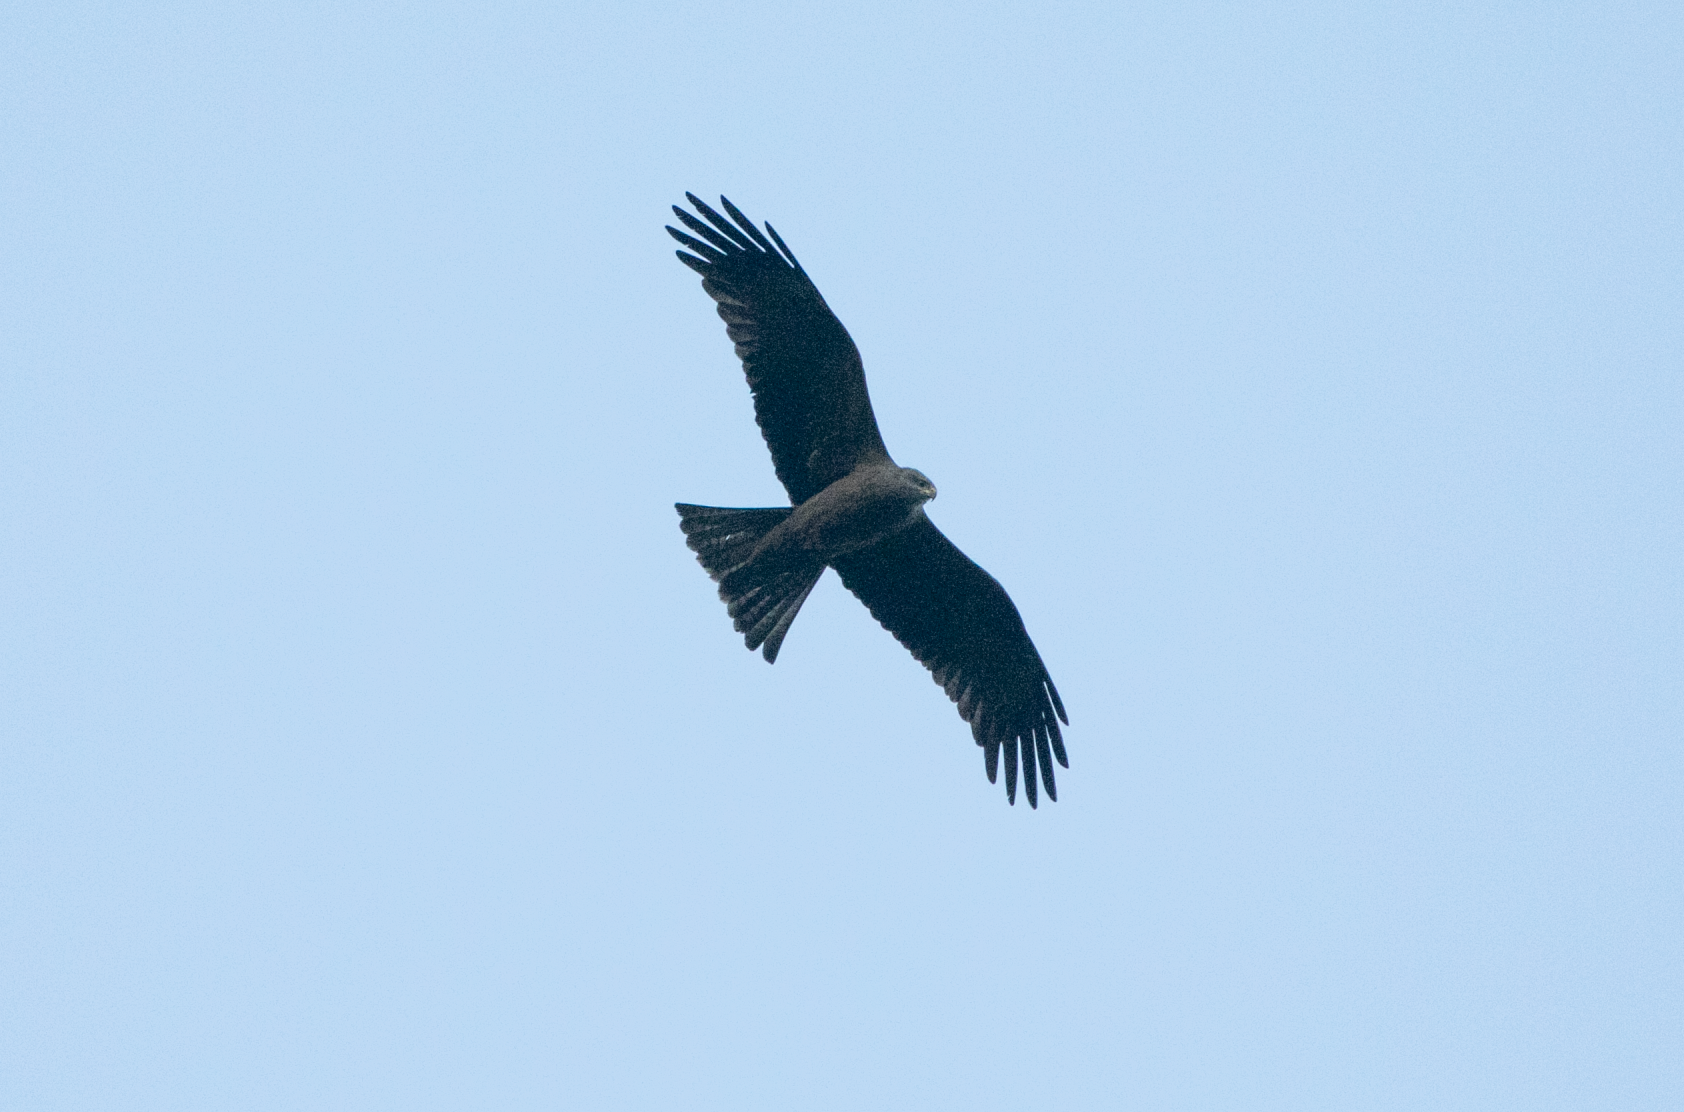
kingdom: Animalia
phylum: Chordata
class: Aves
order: Accipitriformes
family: Accipitridae
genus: Milvus
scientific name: Milvus migrans
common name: Black kite
